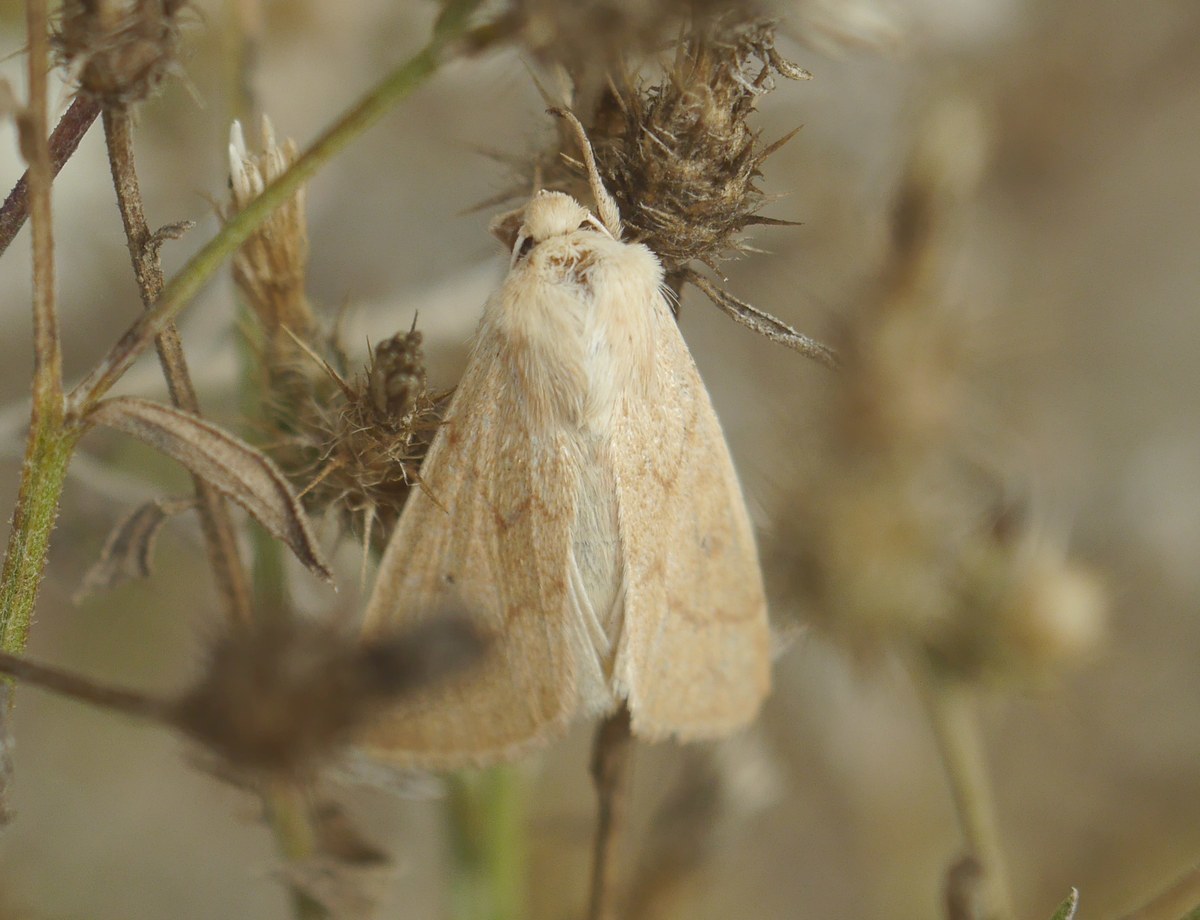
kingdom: Animalia
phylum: Arthropoda
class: Insecta
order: Lepidoptera
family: Noctuidae
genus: Mythimna
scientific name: Mythimna vitellina
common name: Delicate
